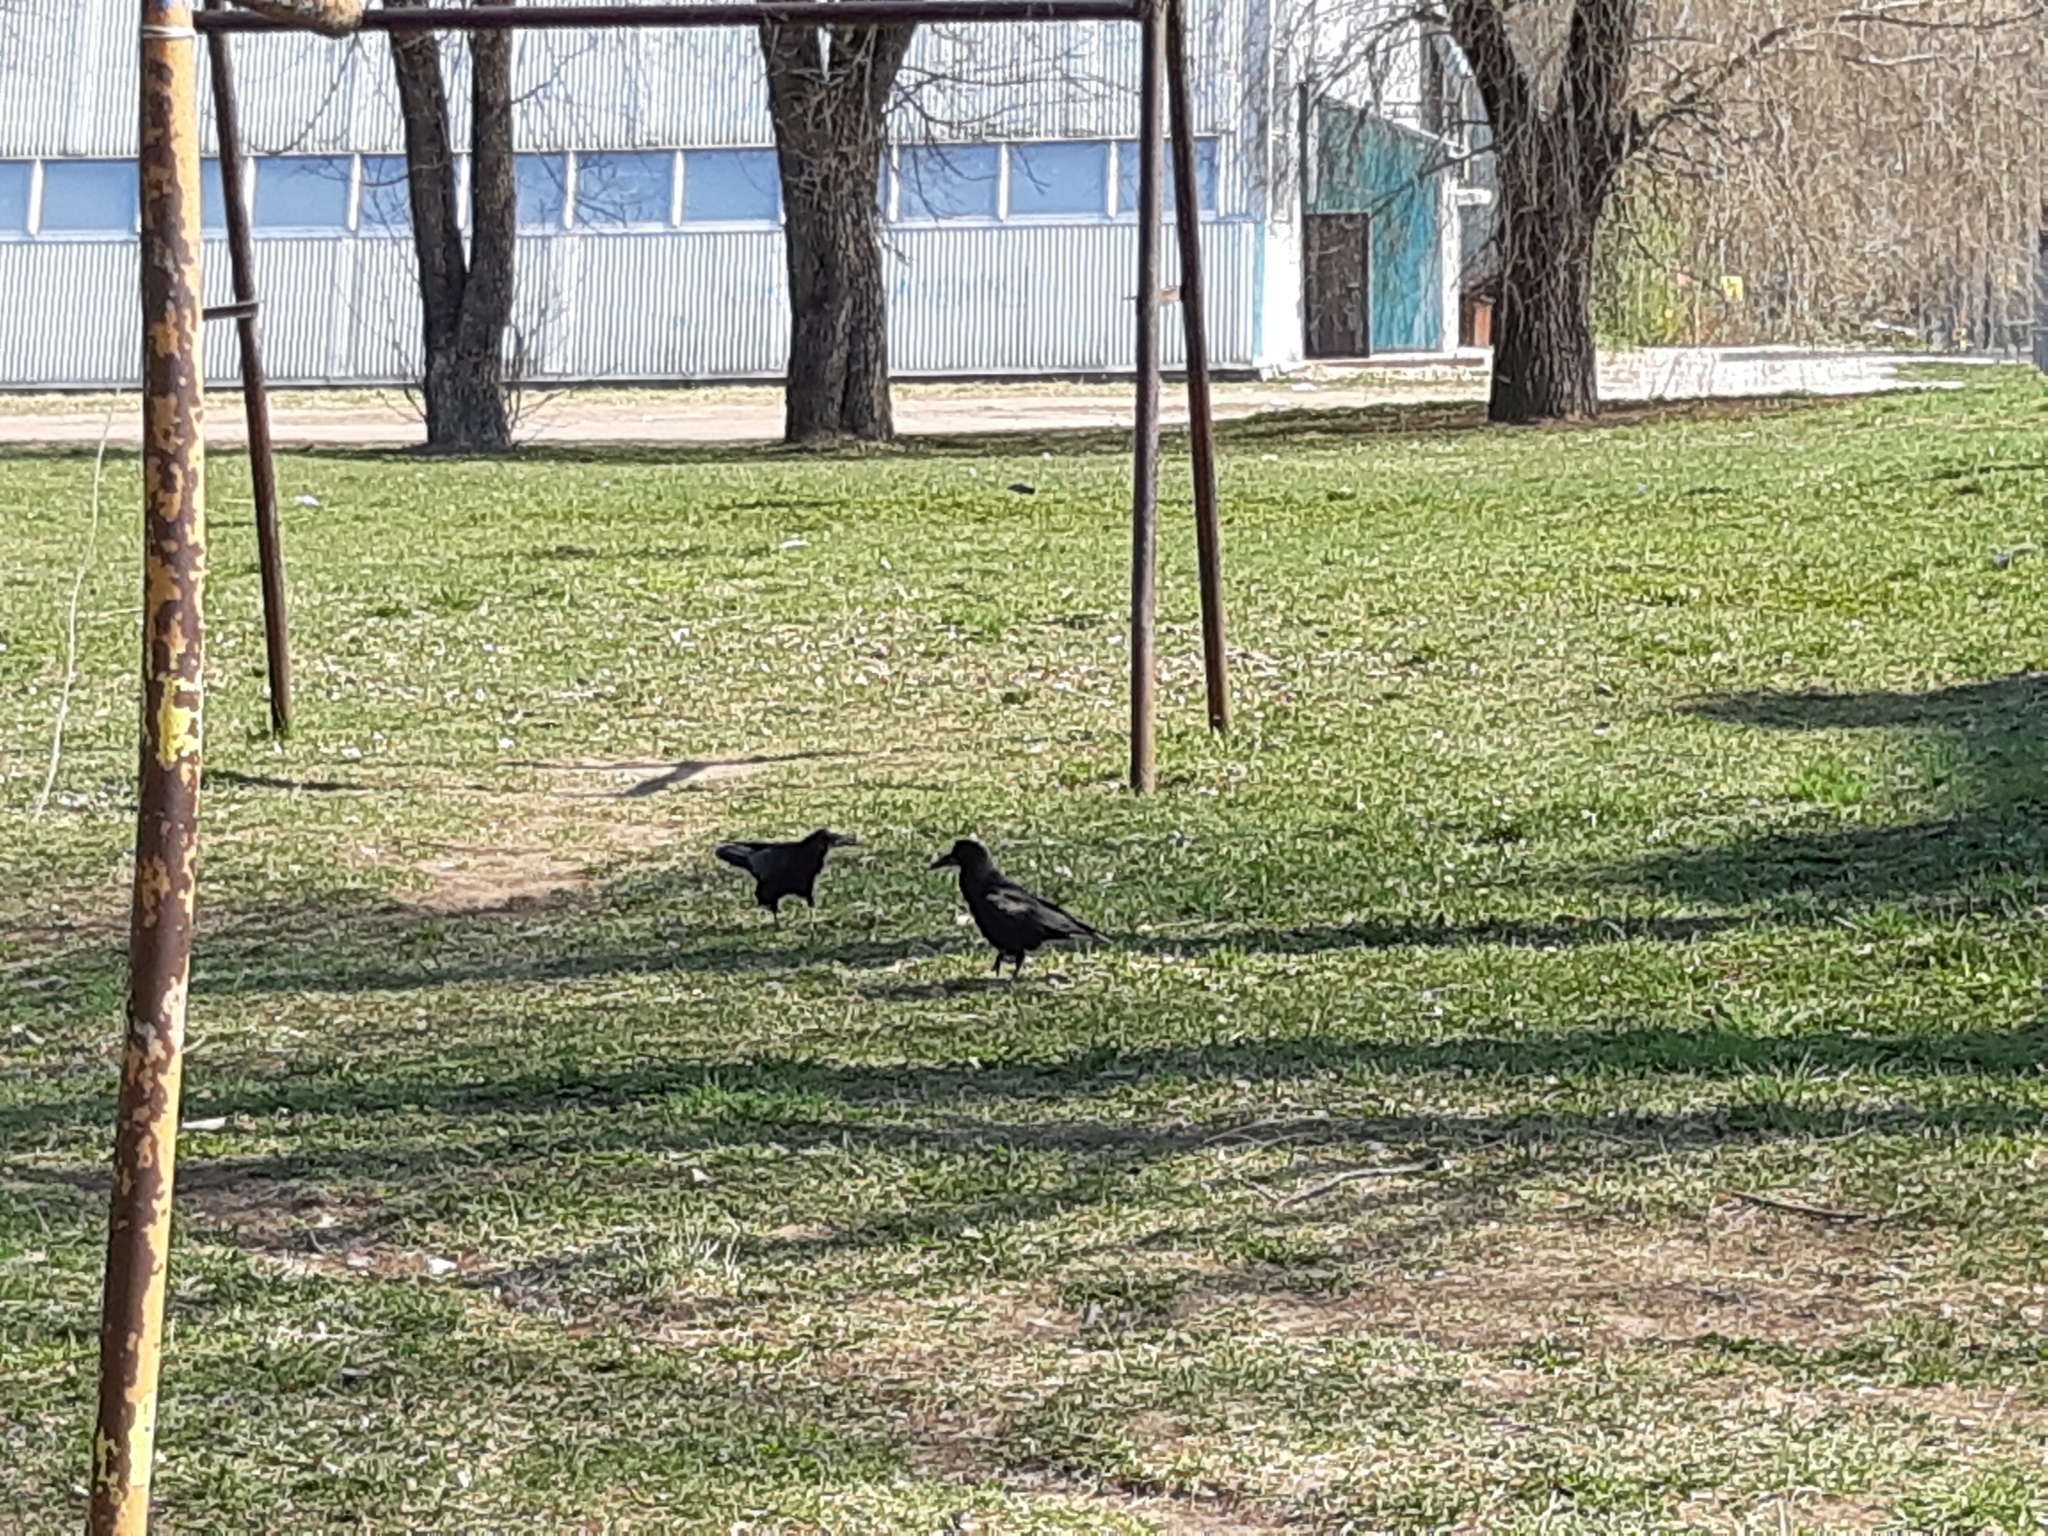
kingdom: Animalia
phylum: Chordata
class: Aves
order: Passeriformes
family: Corvidae
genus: Corvus
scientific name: Corvus frugilegus
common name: Rook
